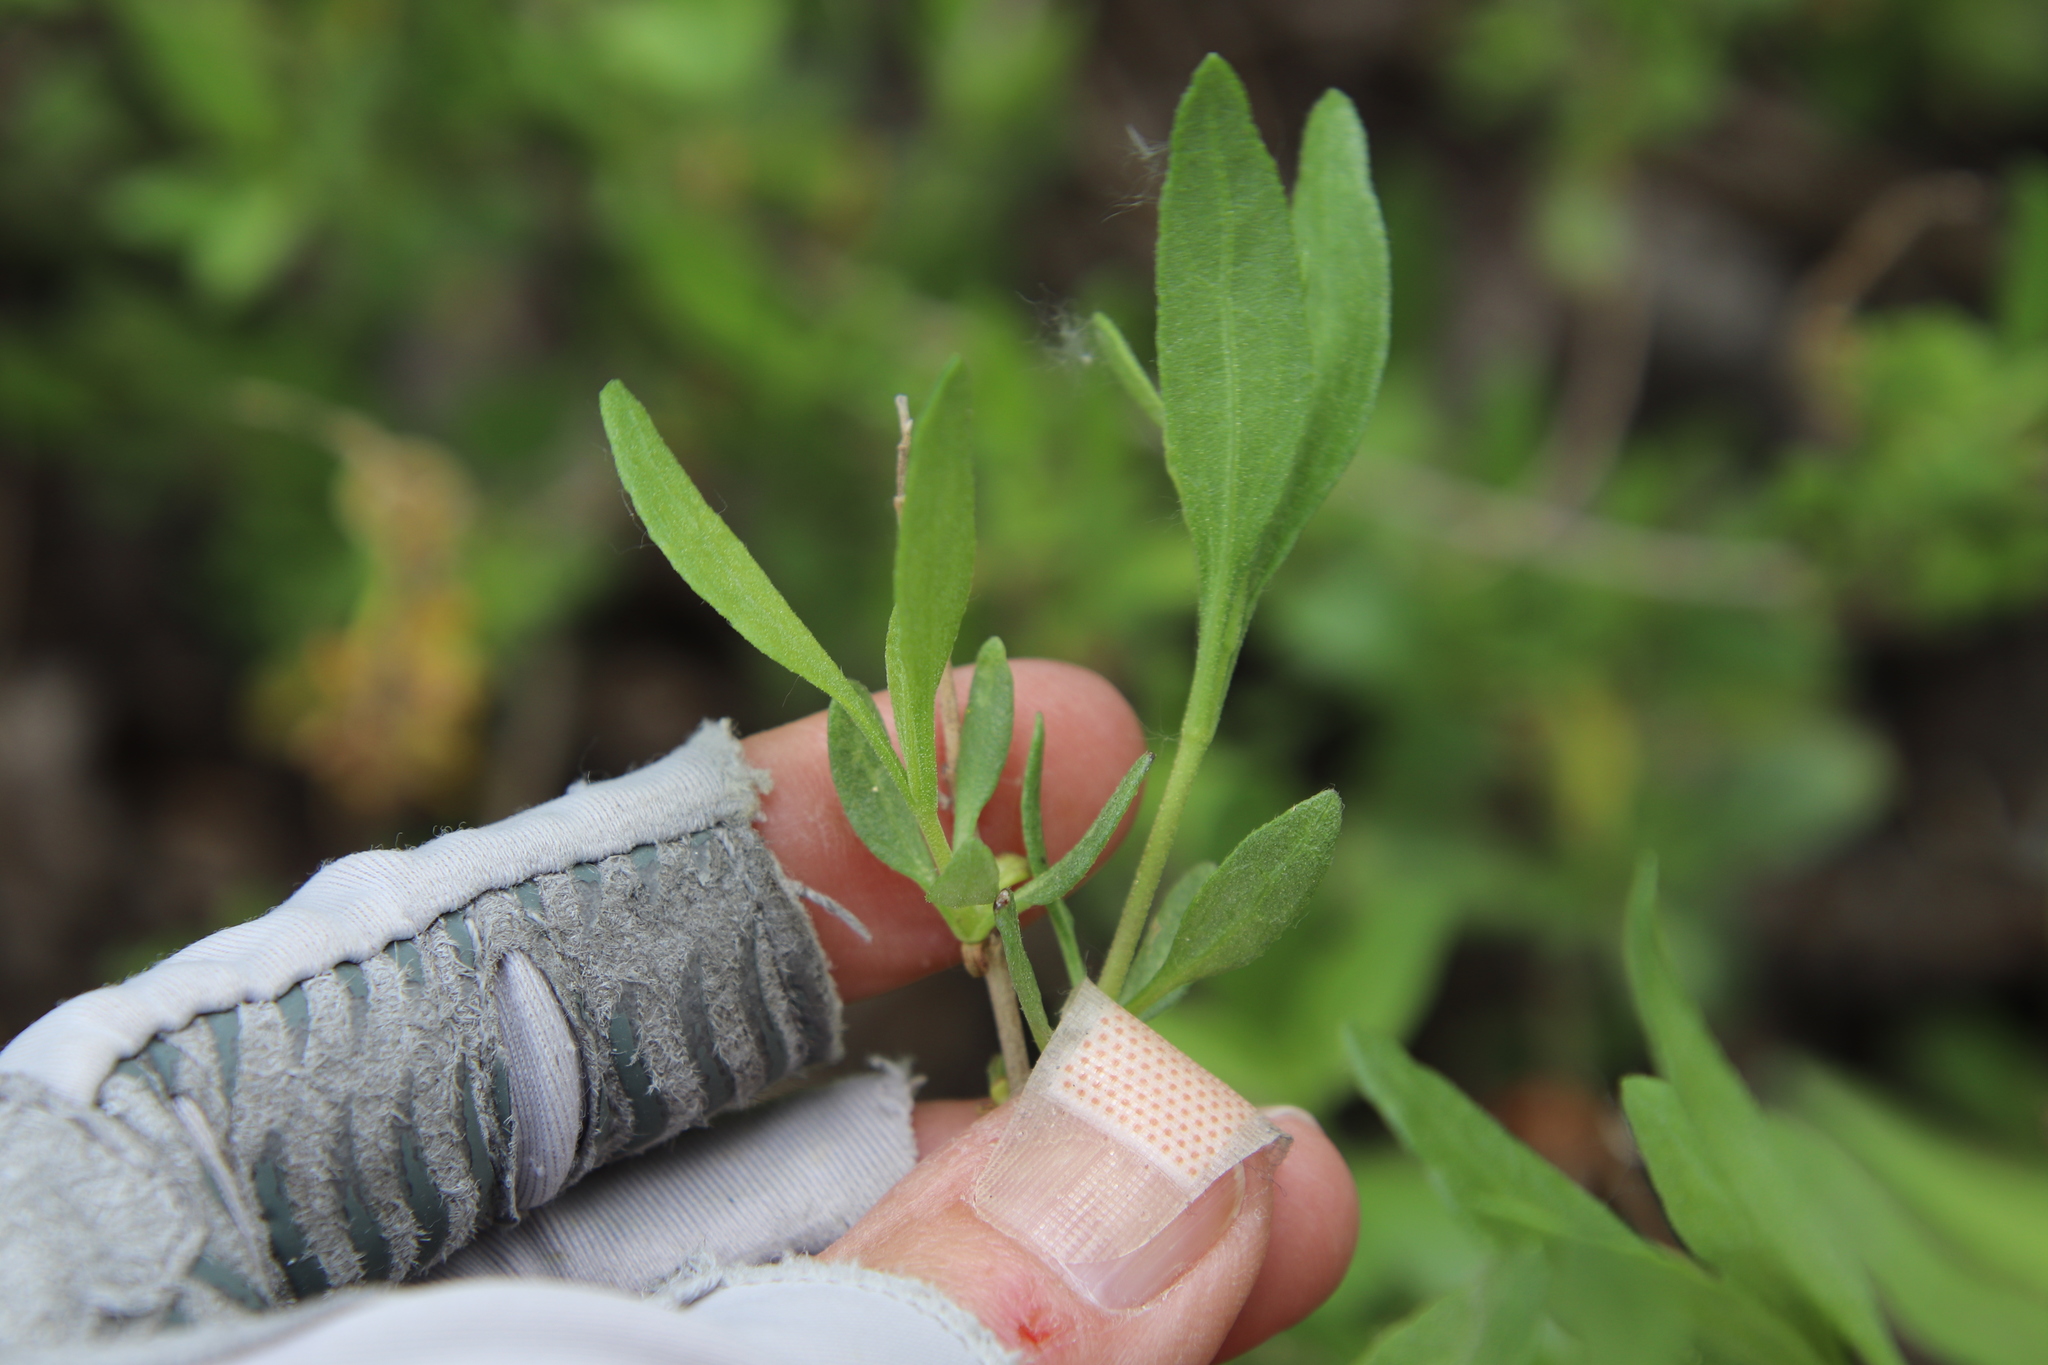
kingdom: Plantae
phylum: Tracheophyta
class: Magnoliopsida
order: Asterales
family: Asteraceae
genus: Iva
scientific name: Iva hayesiana
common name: San diego marsh-elder
